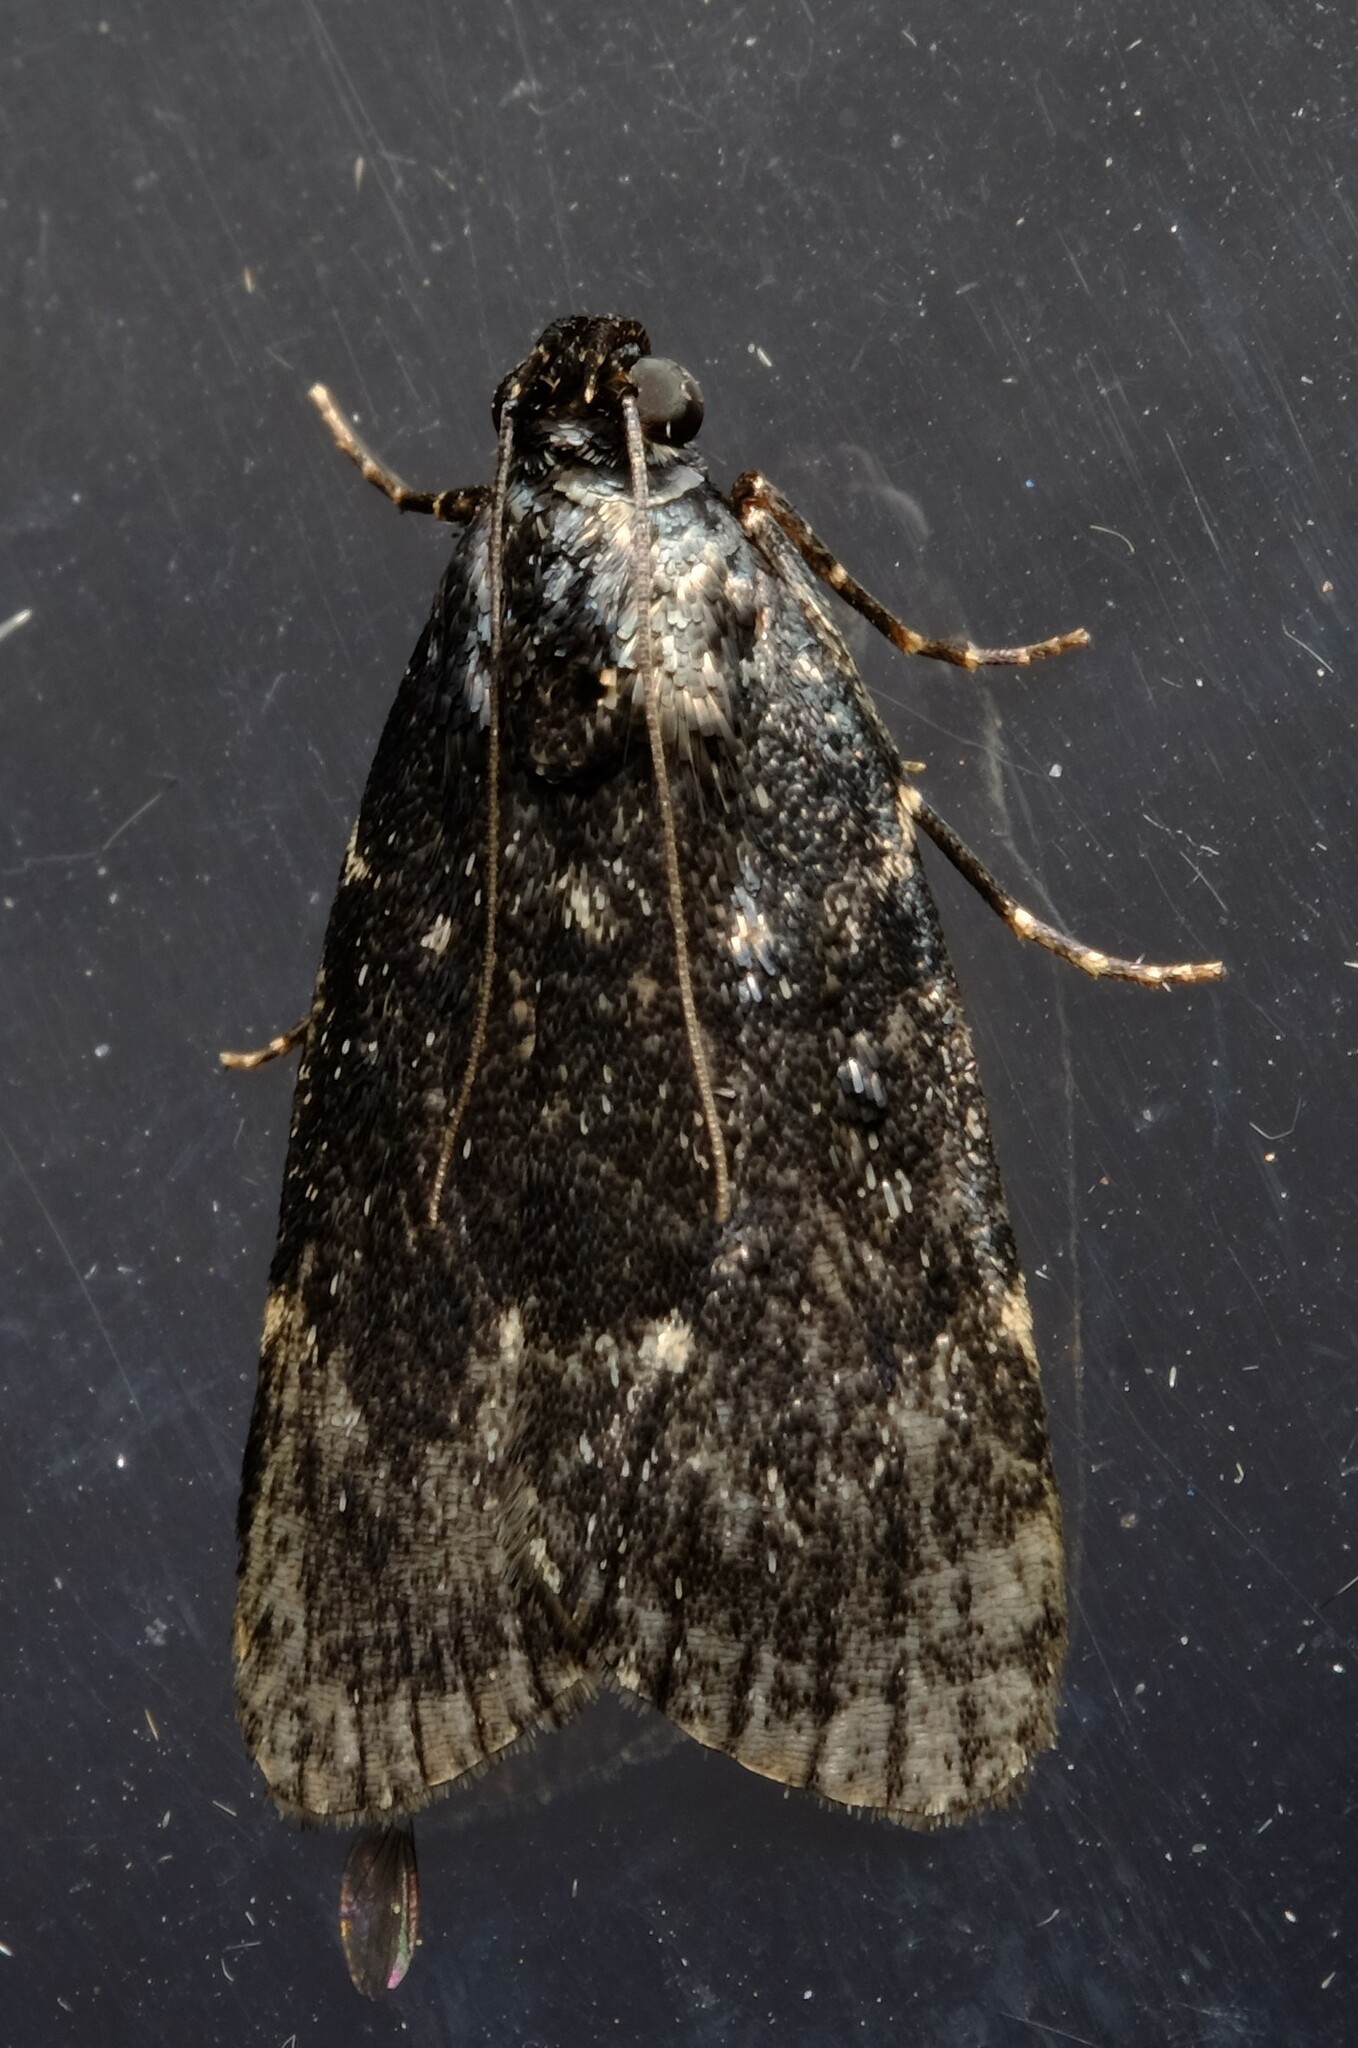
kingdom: Animalia
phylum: Arthropoda
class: Insecta
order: Lepidoptera
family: Pyralidae
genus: Stericta
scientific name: Stericta carbonalis
